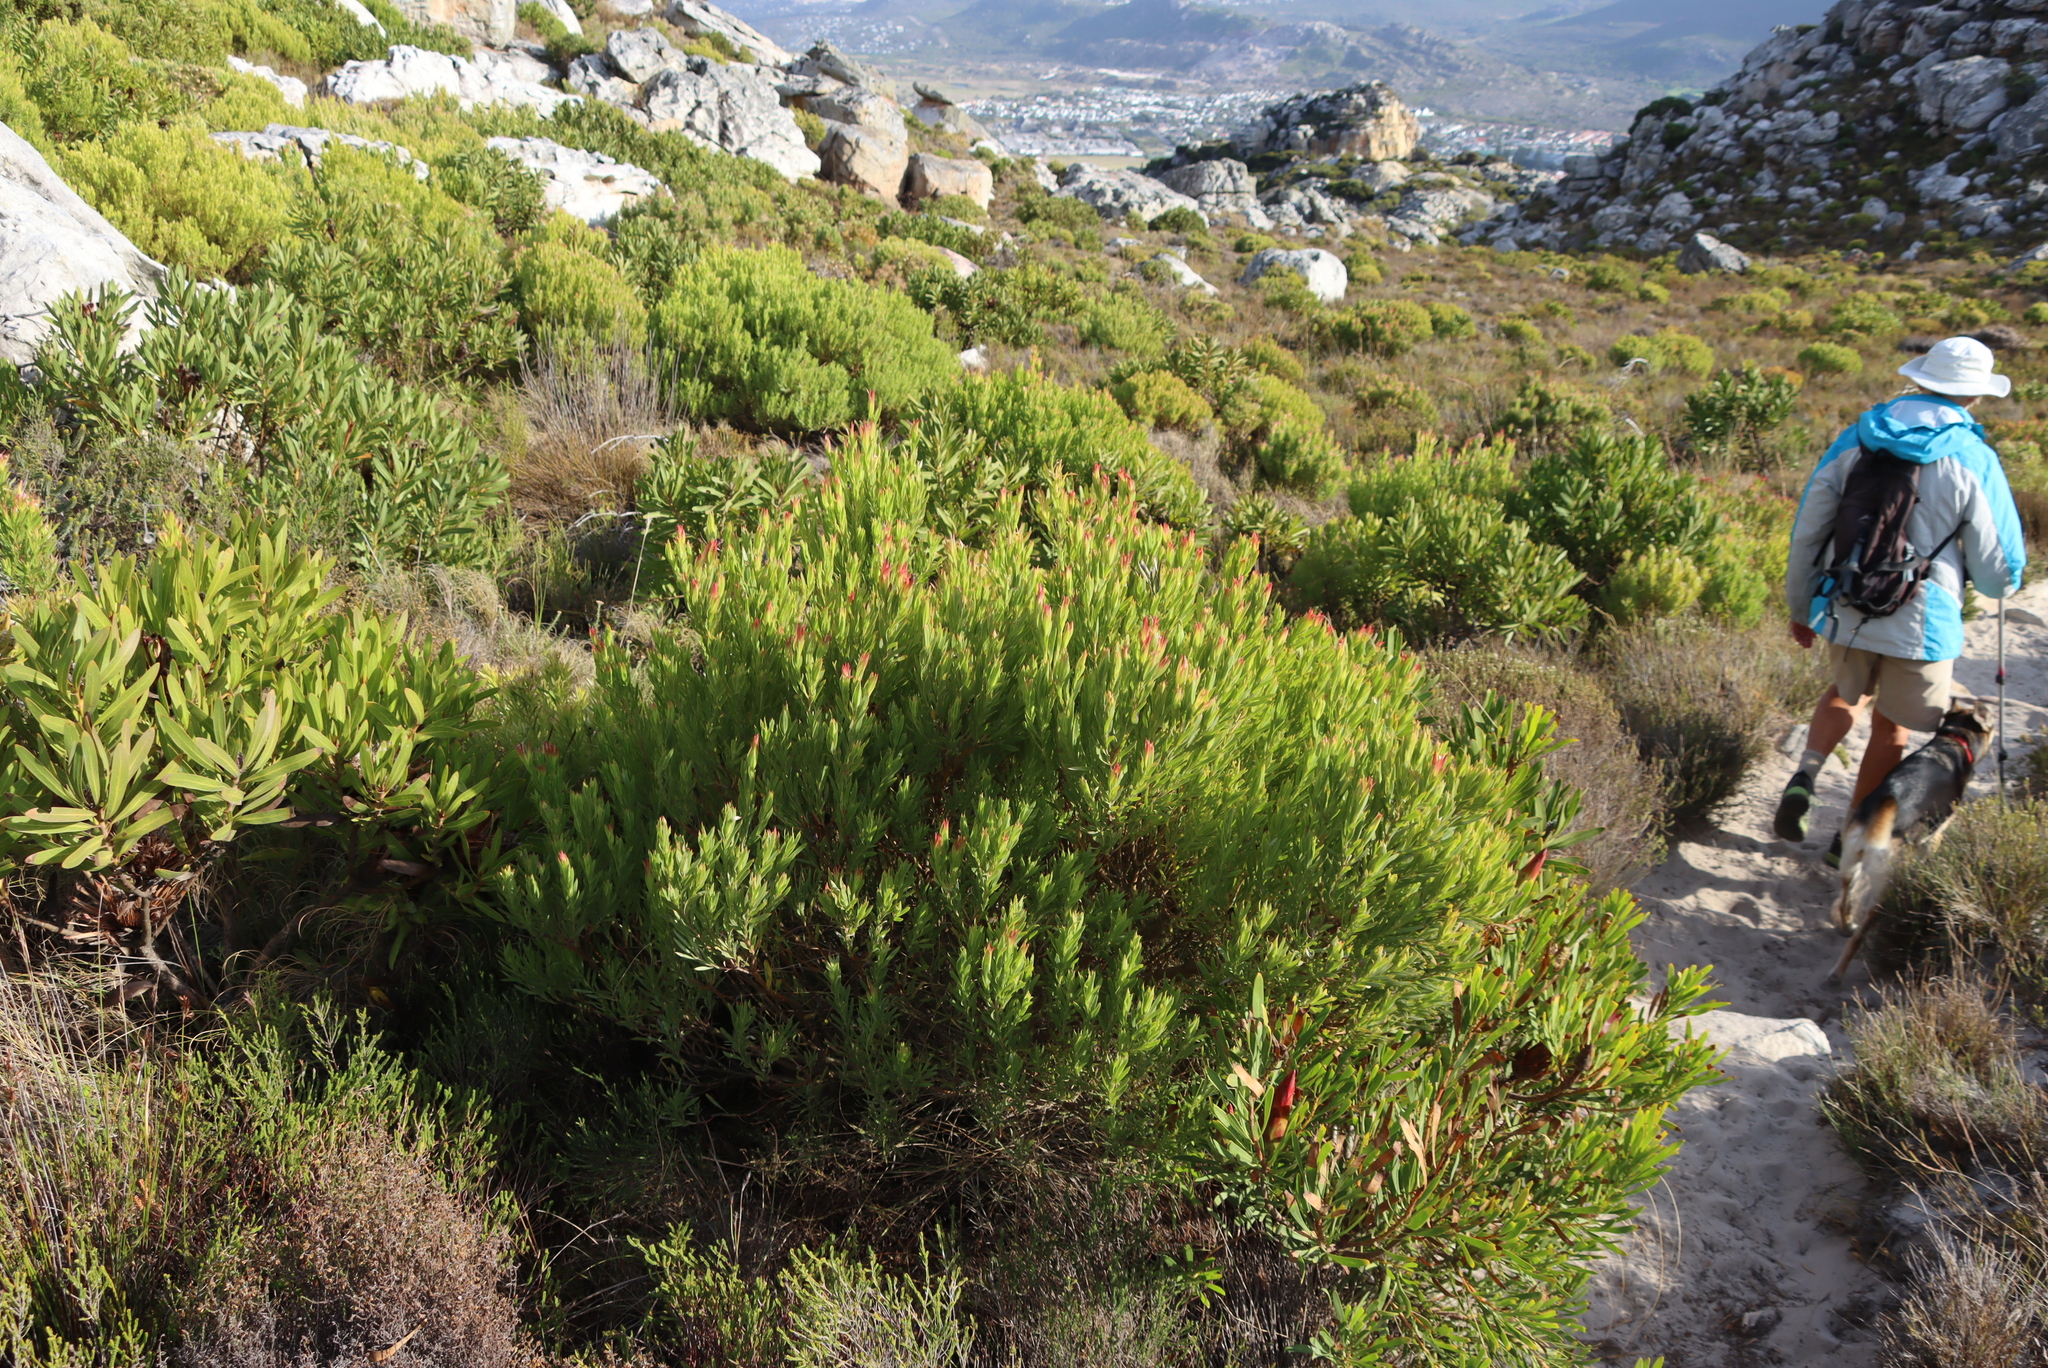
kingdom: Plantae
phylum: Tracheophyta
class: Magnoliopsida
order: Proteales
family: Proteaceae
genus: Leucadendron
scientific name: Leucadendron xanthoconus
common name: Sickle-leaf conebush
